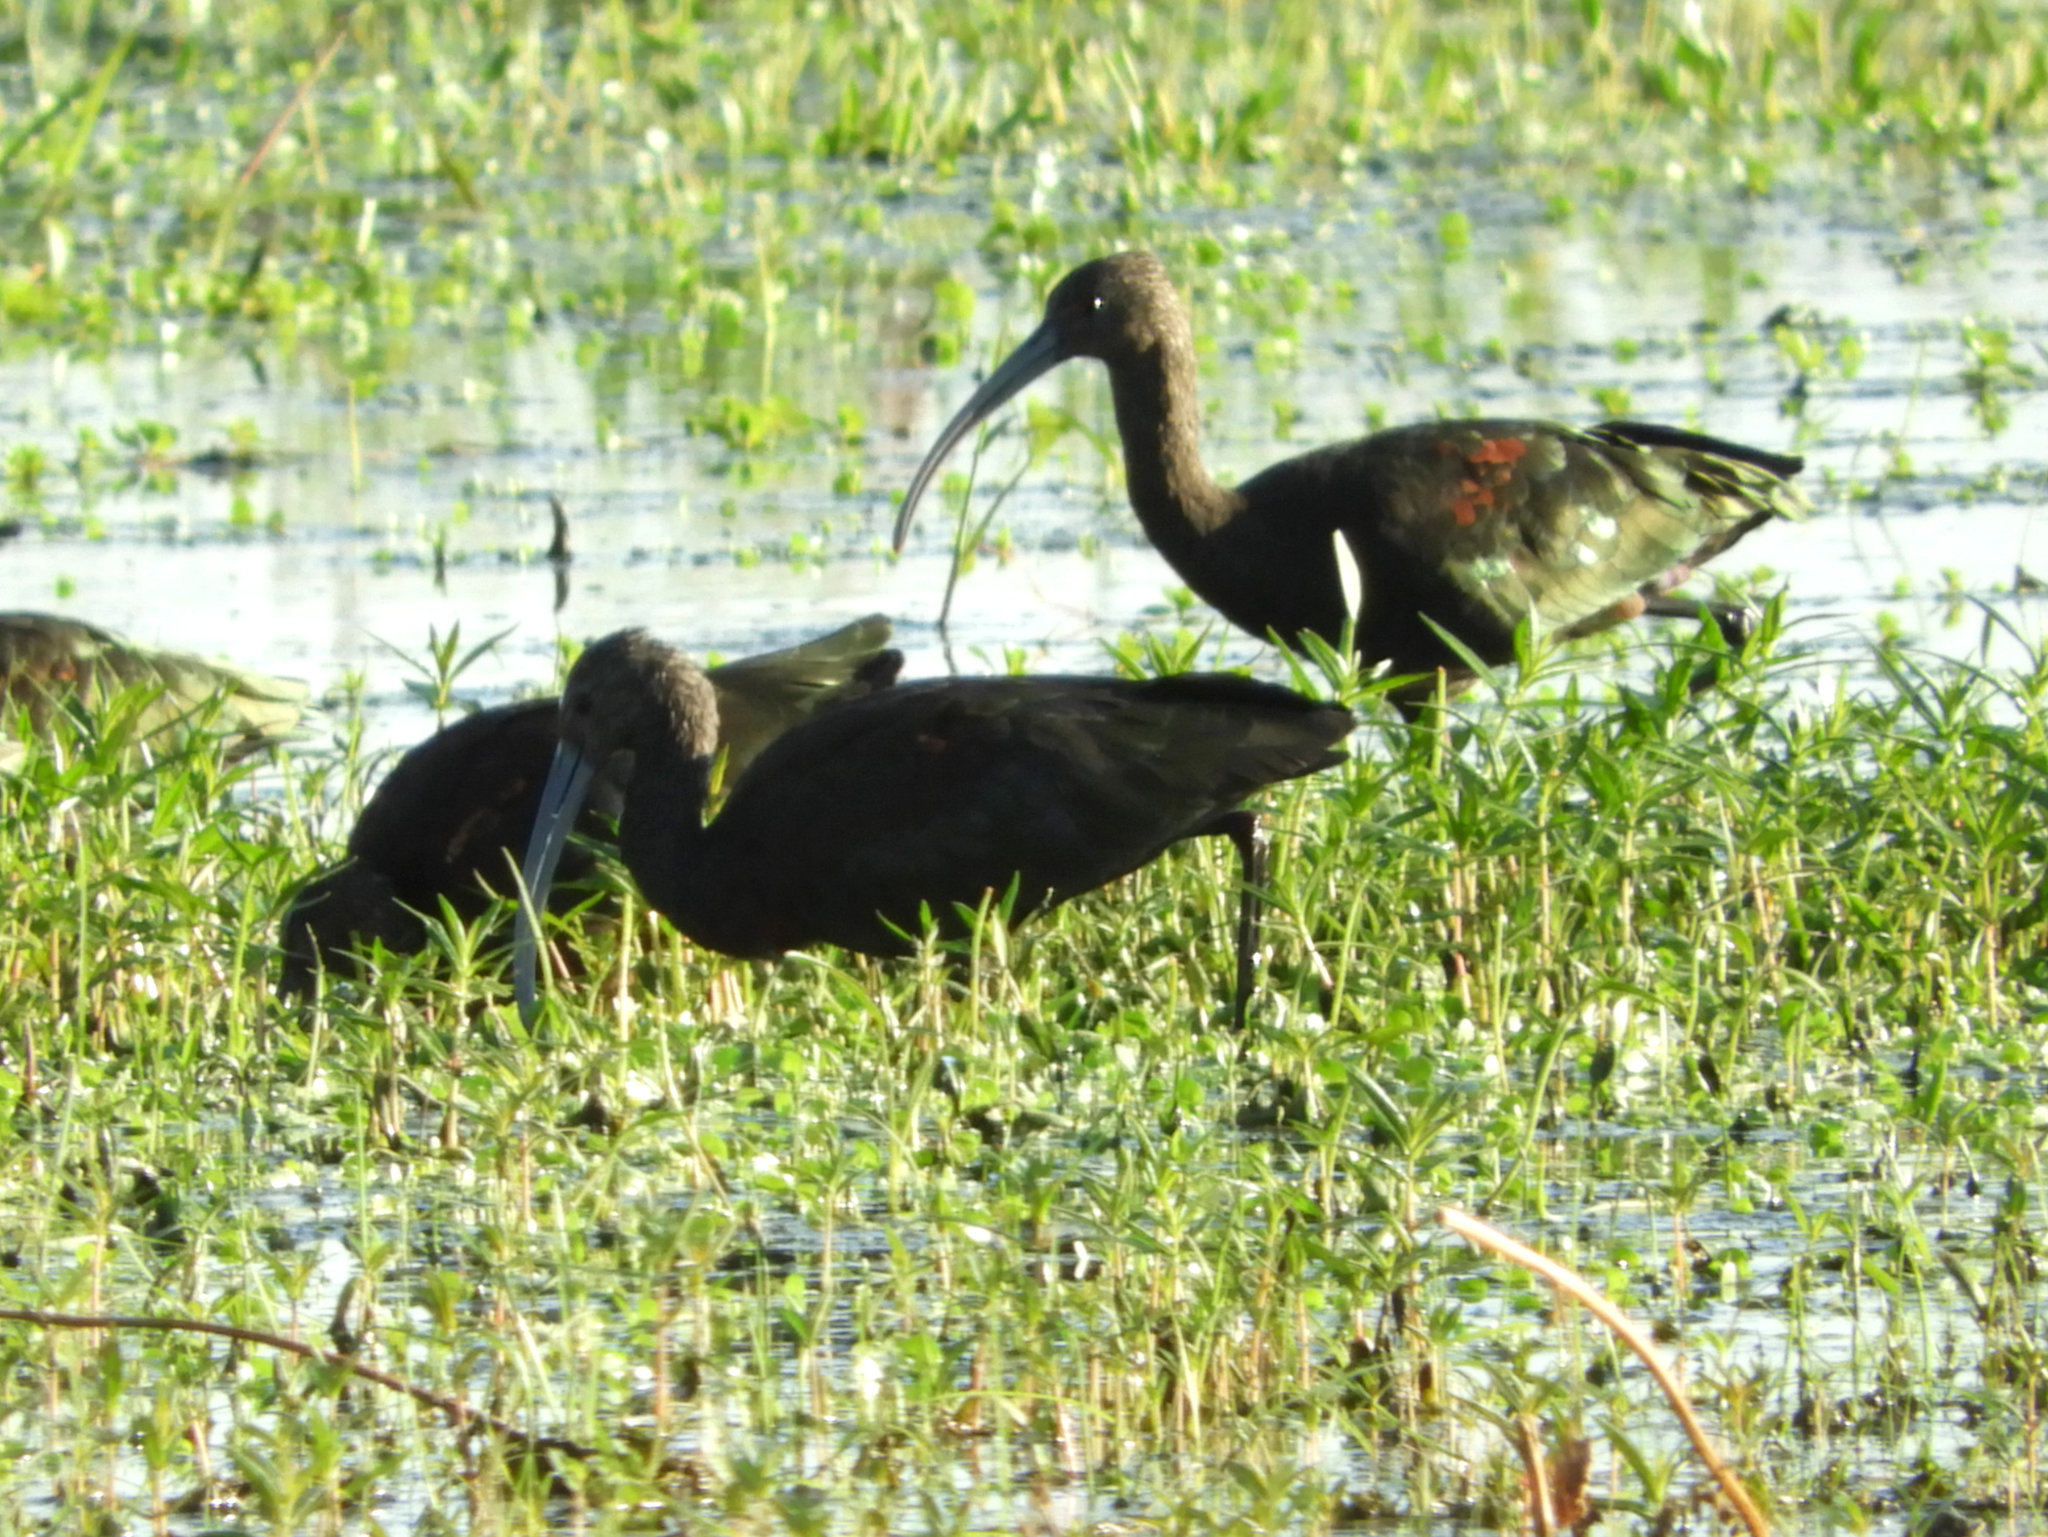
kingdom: Animalia
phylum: Chordata
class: Aves
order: Pelecaniformes
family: Threskiornithidae
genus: Plegadis
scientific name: Plegadis chihi
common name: White-faced ibis
